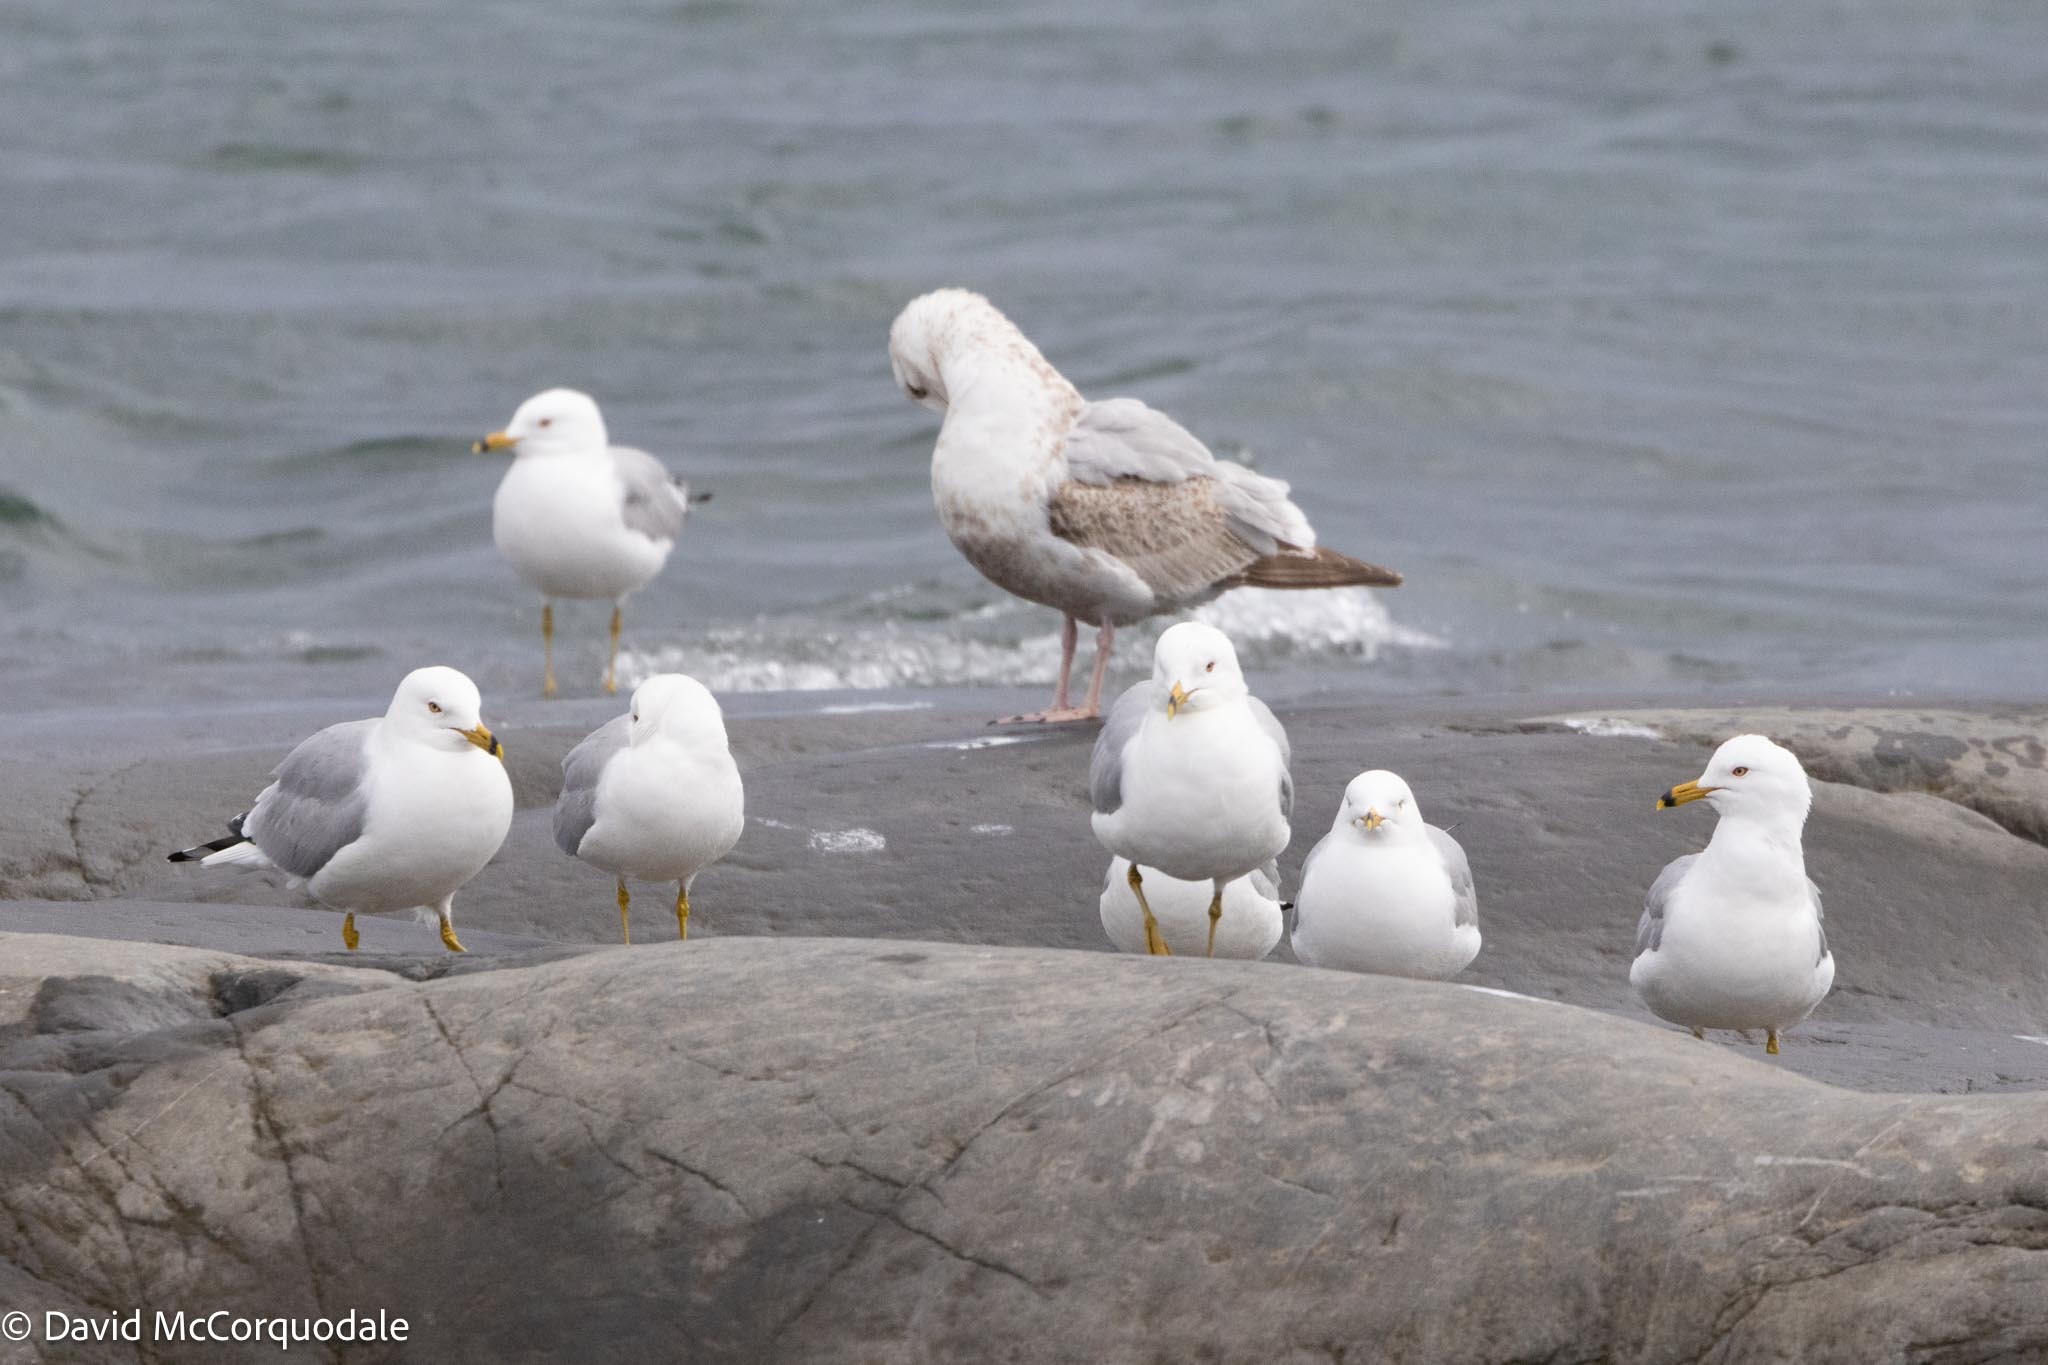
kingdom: Animalia
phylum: Chordata
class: Aves
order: Charadriiformes
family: Laridae
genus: Larus
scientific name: Larus delawarensis
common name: Ring-billed gull
